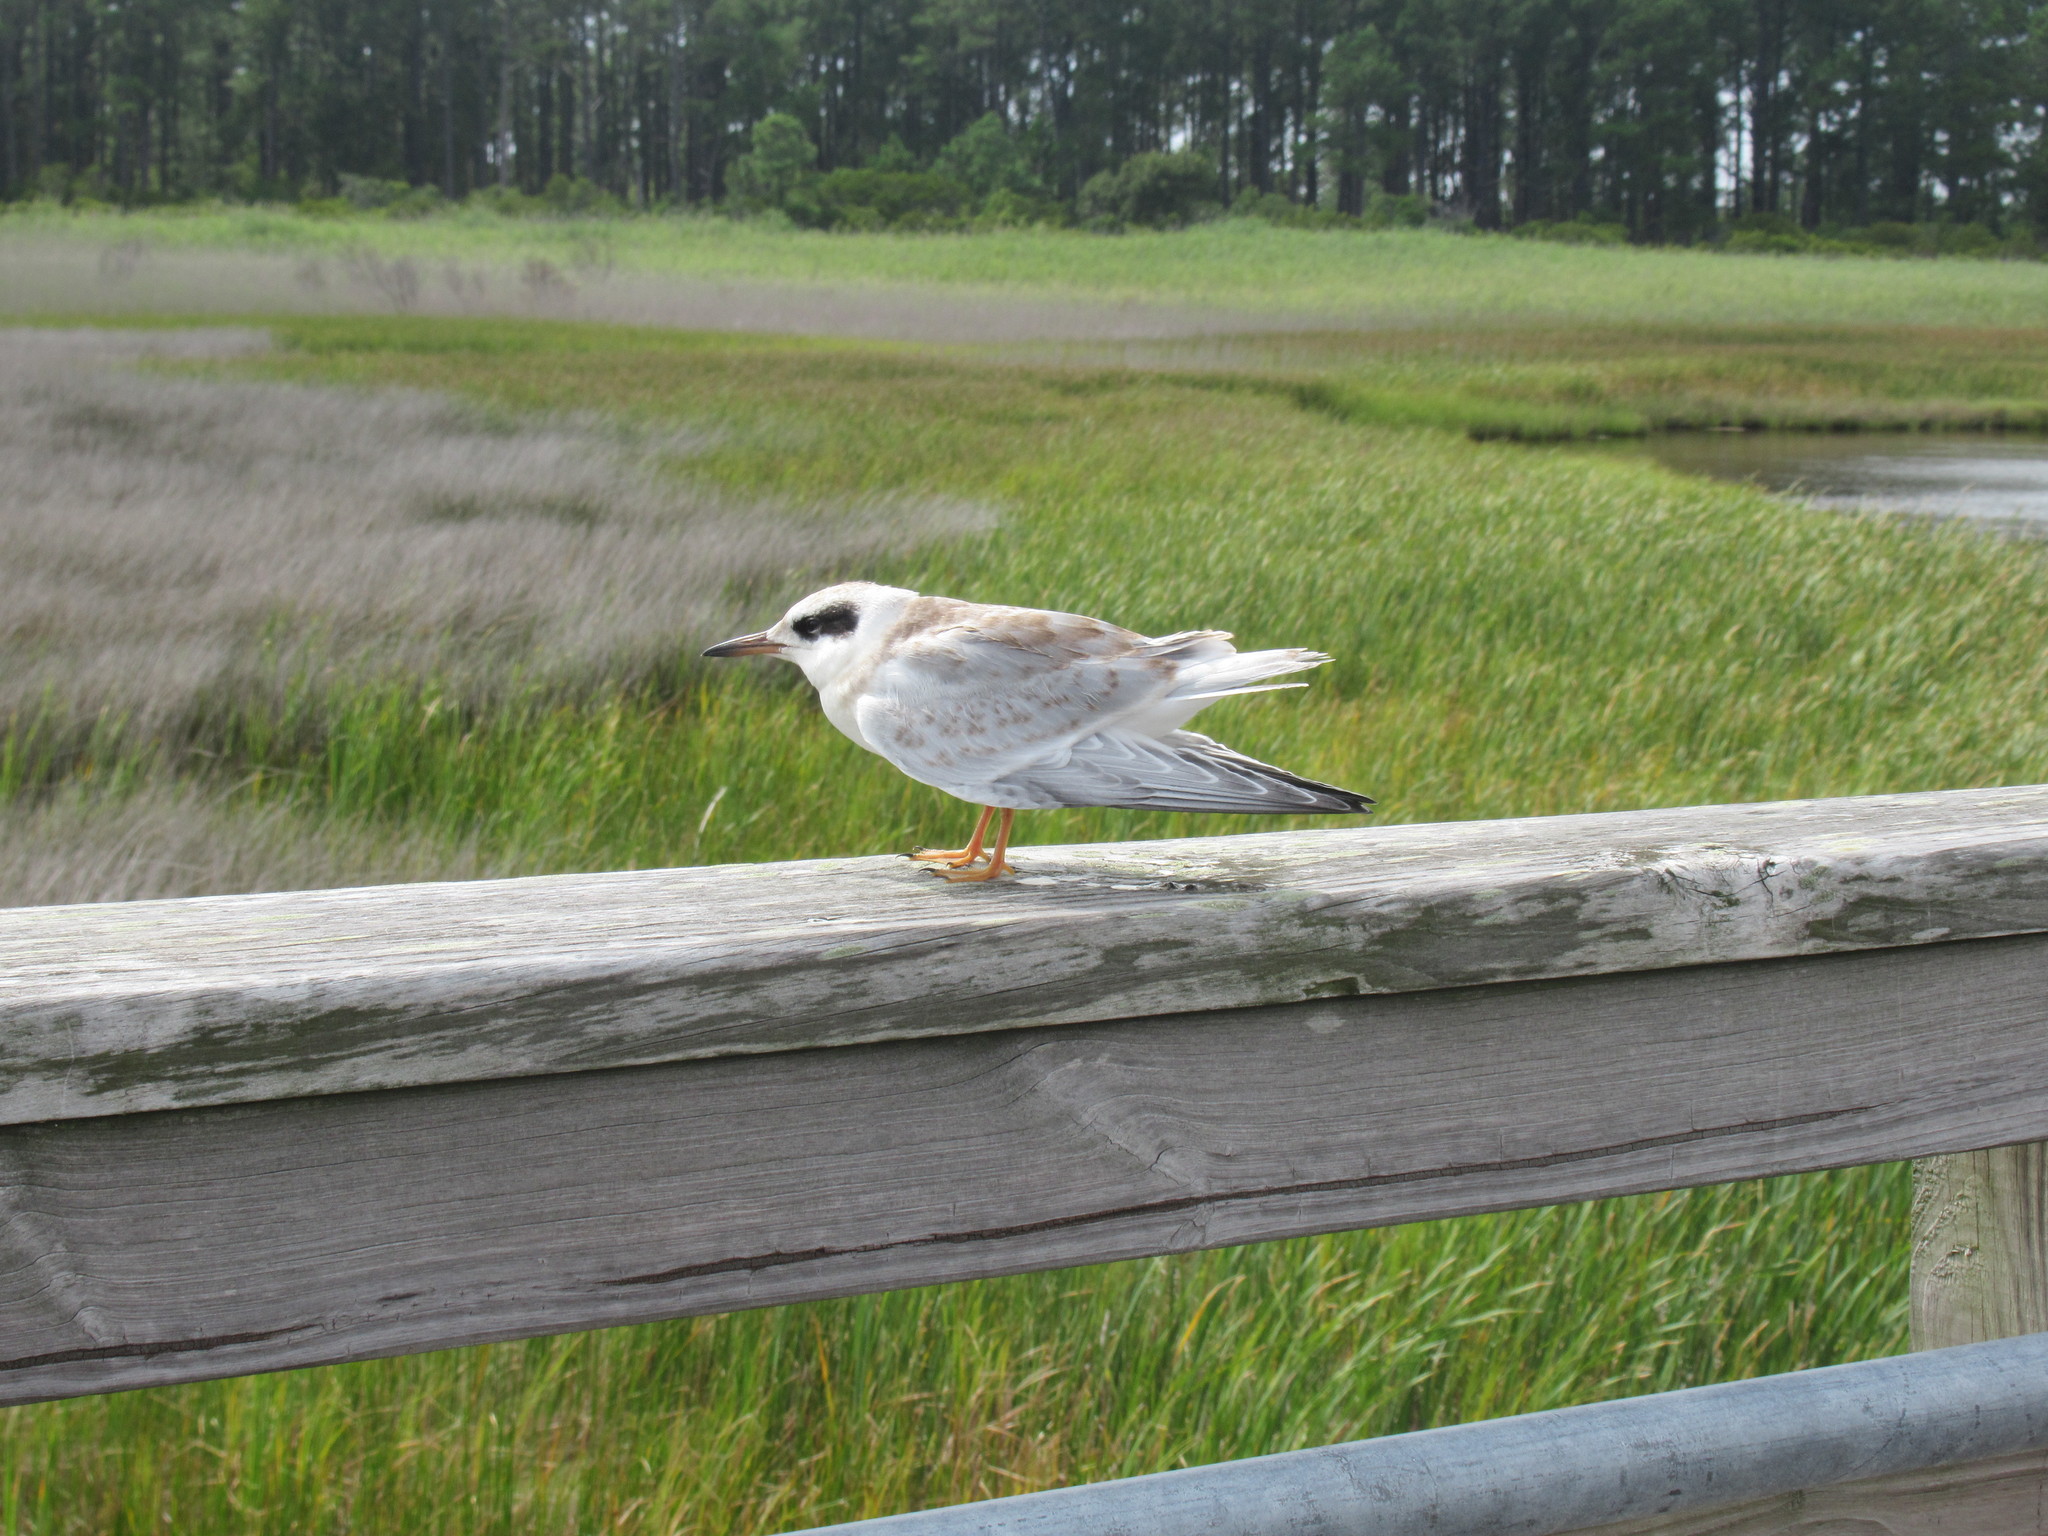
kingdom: Animalia
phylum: Chordata
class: Aves
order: Charadriiformes
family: Laridae
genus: Sterna
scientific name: Sterna forsteri
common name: Forster's tern
